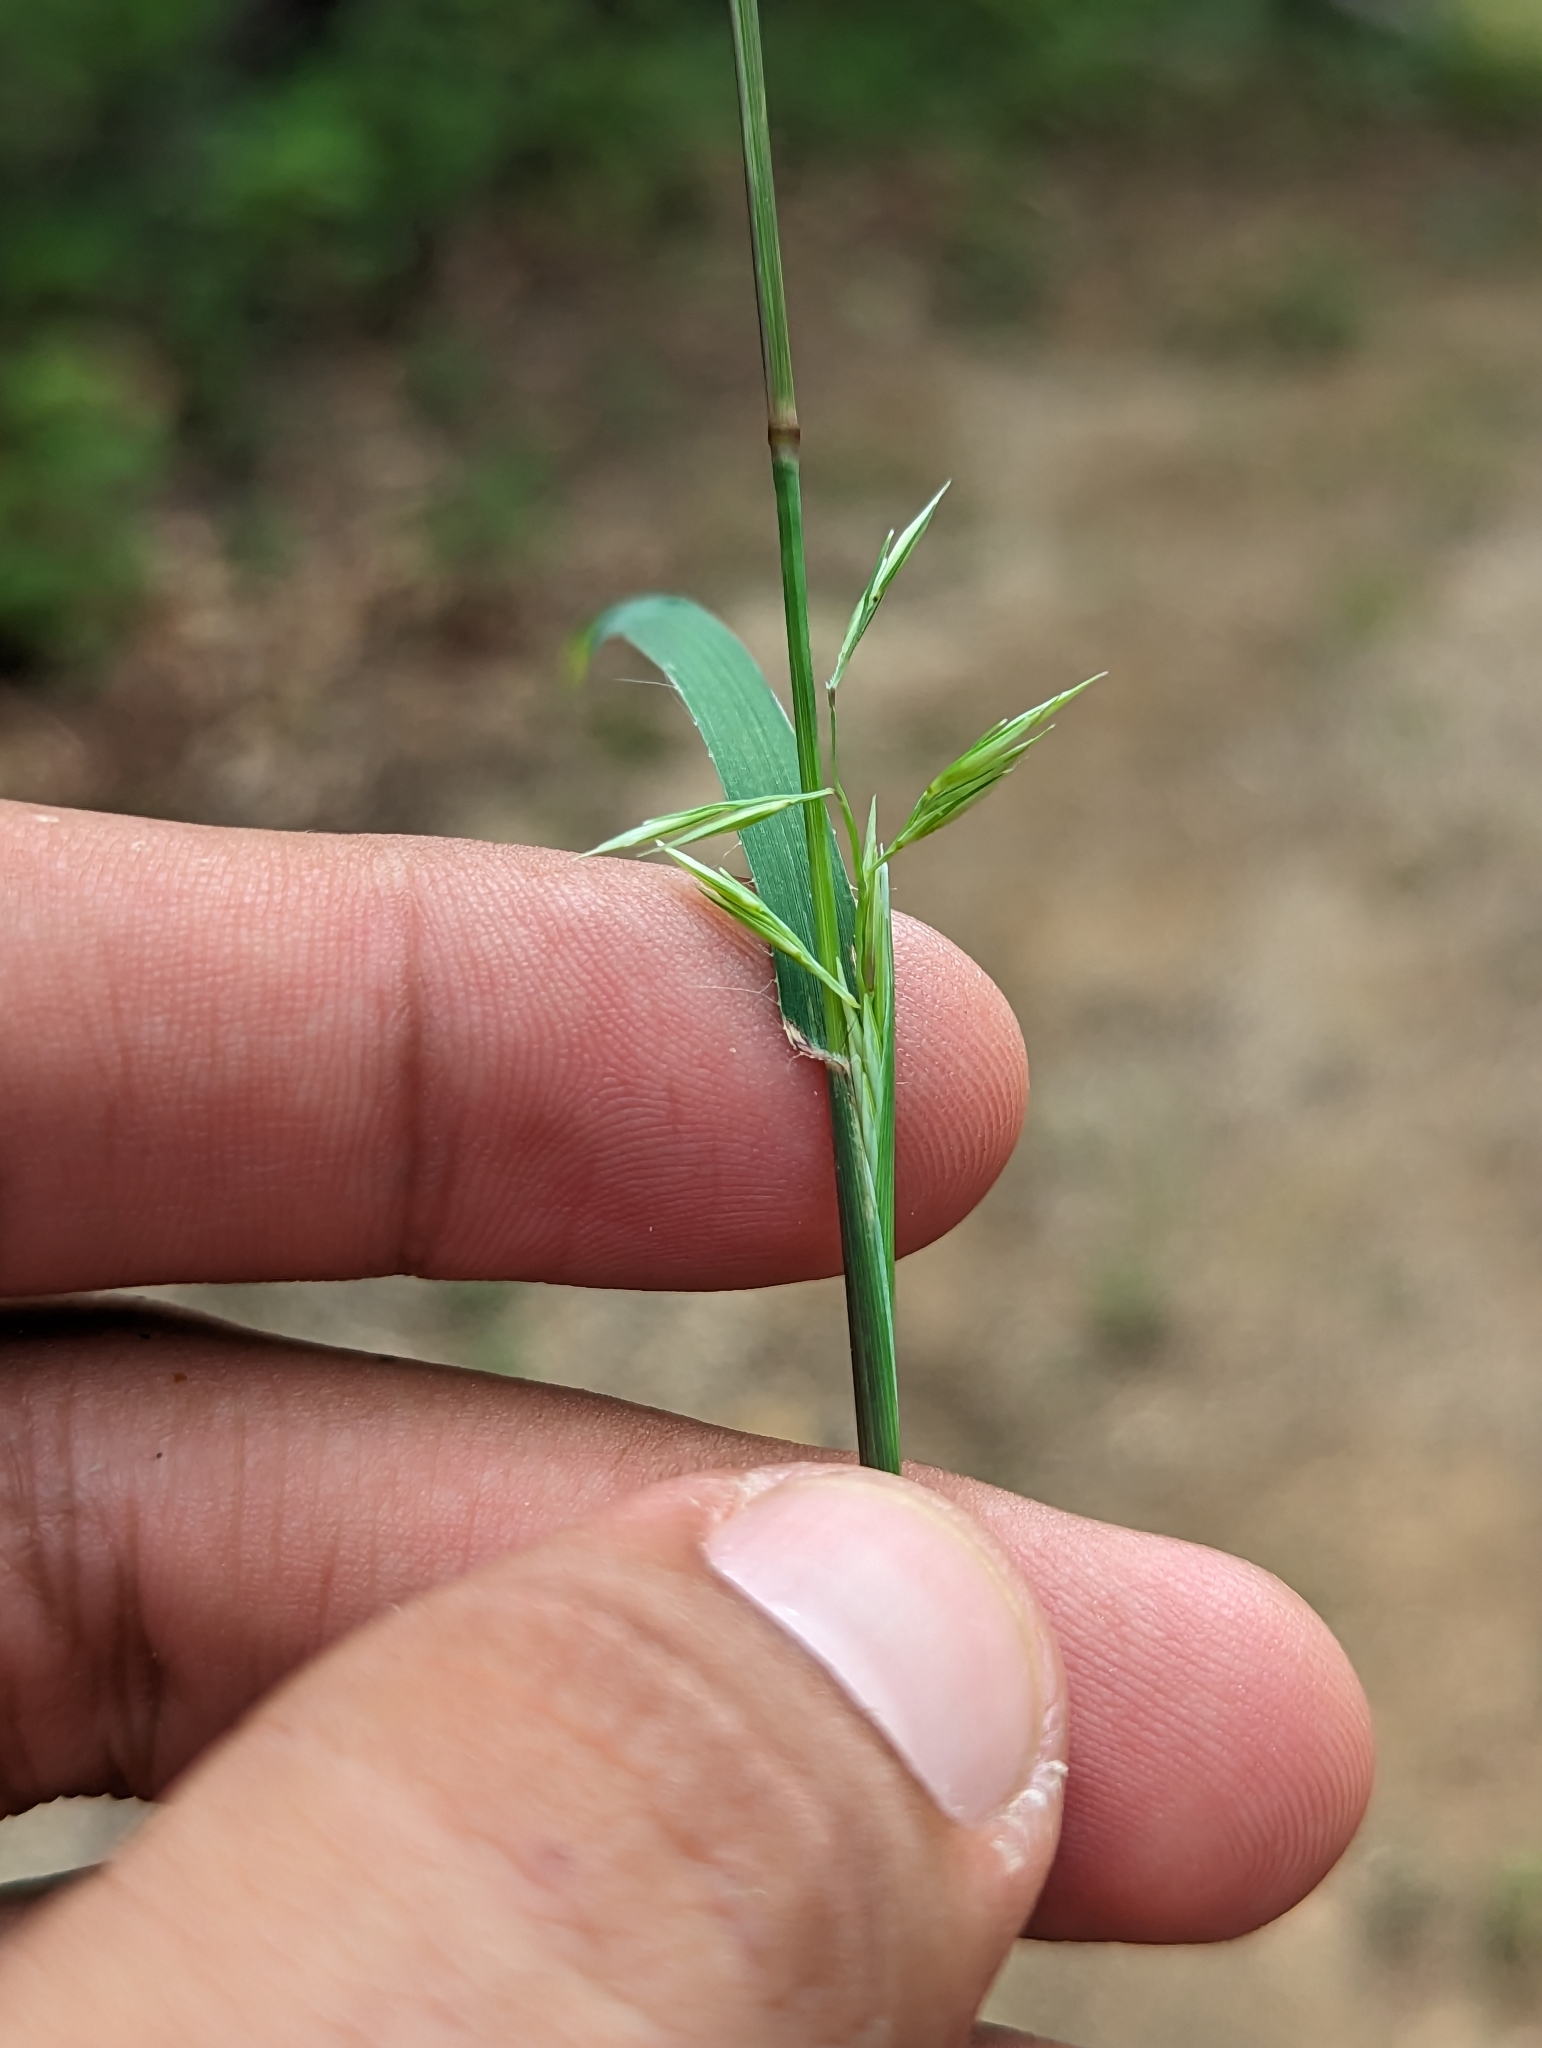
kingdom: Plantae
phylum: Tracheophyta
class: Liliopsida
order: Poales
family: Poaceae
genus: Bouteloua
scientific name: Bouteloua repens
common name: Slender grama
